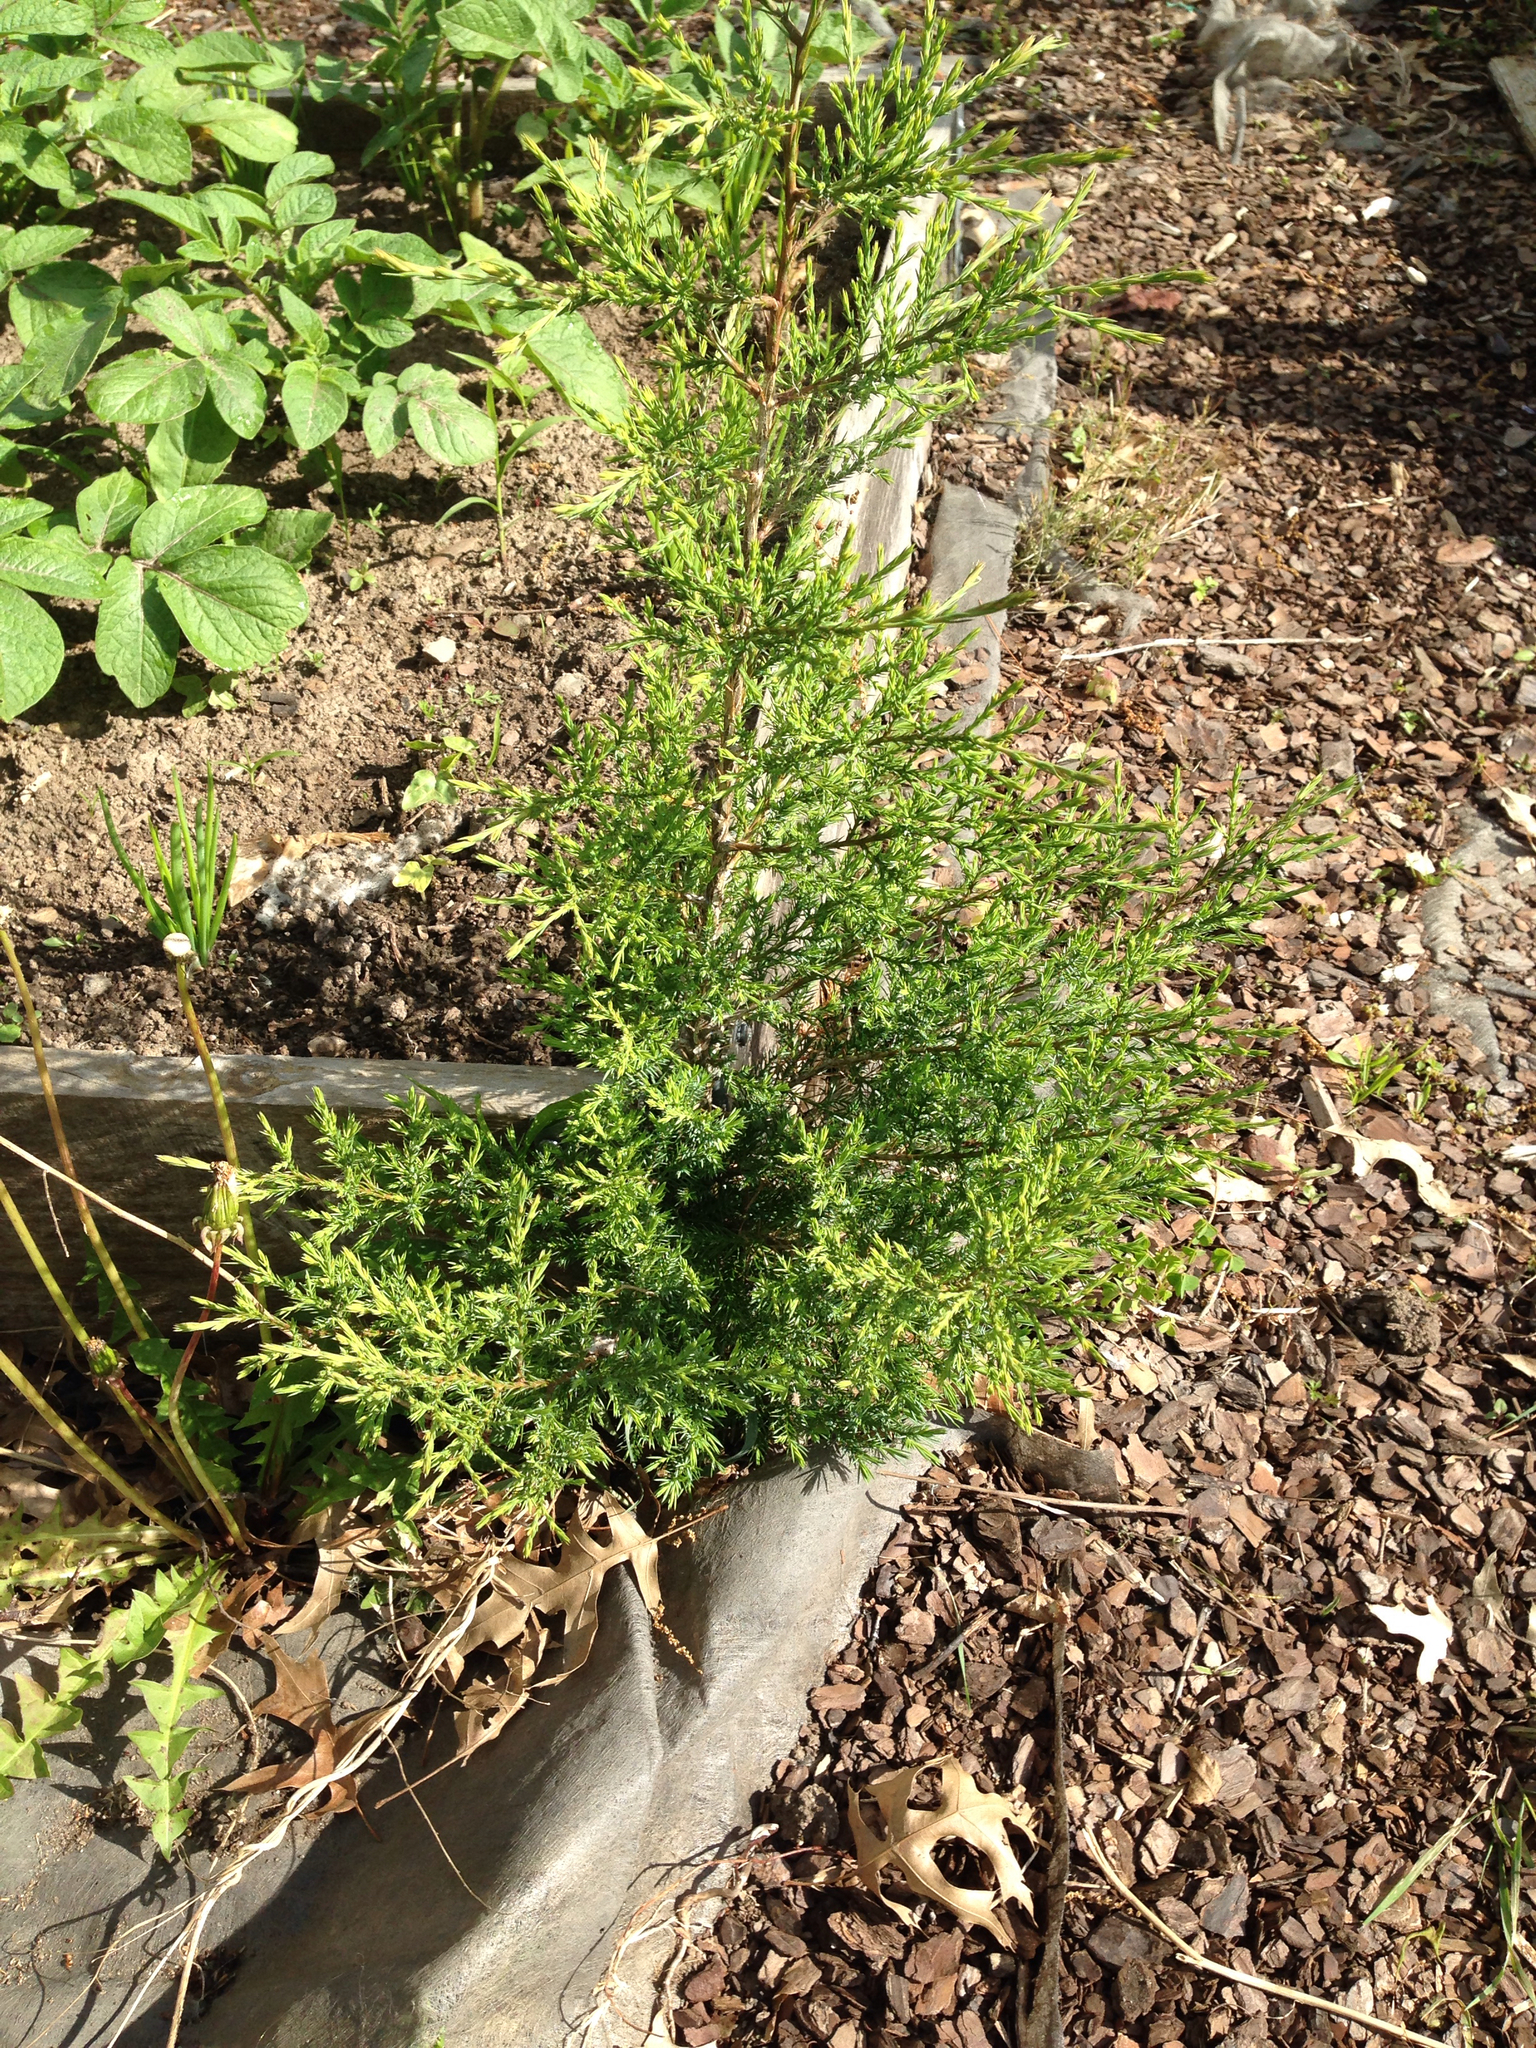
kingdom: Plantae
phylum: Tracheophyta
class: Pinopsida
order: Pinales
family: Cupressaceae
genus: Juniperus
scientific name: Juniperus virginiana
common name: Red juniper
